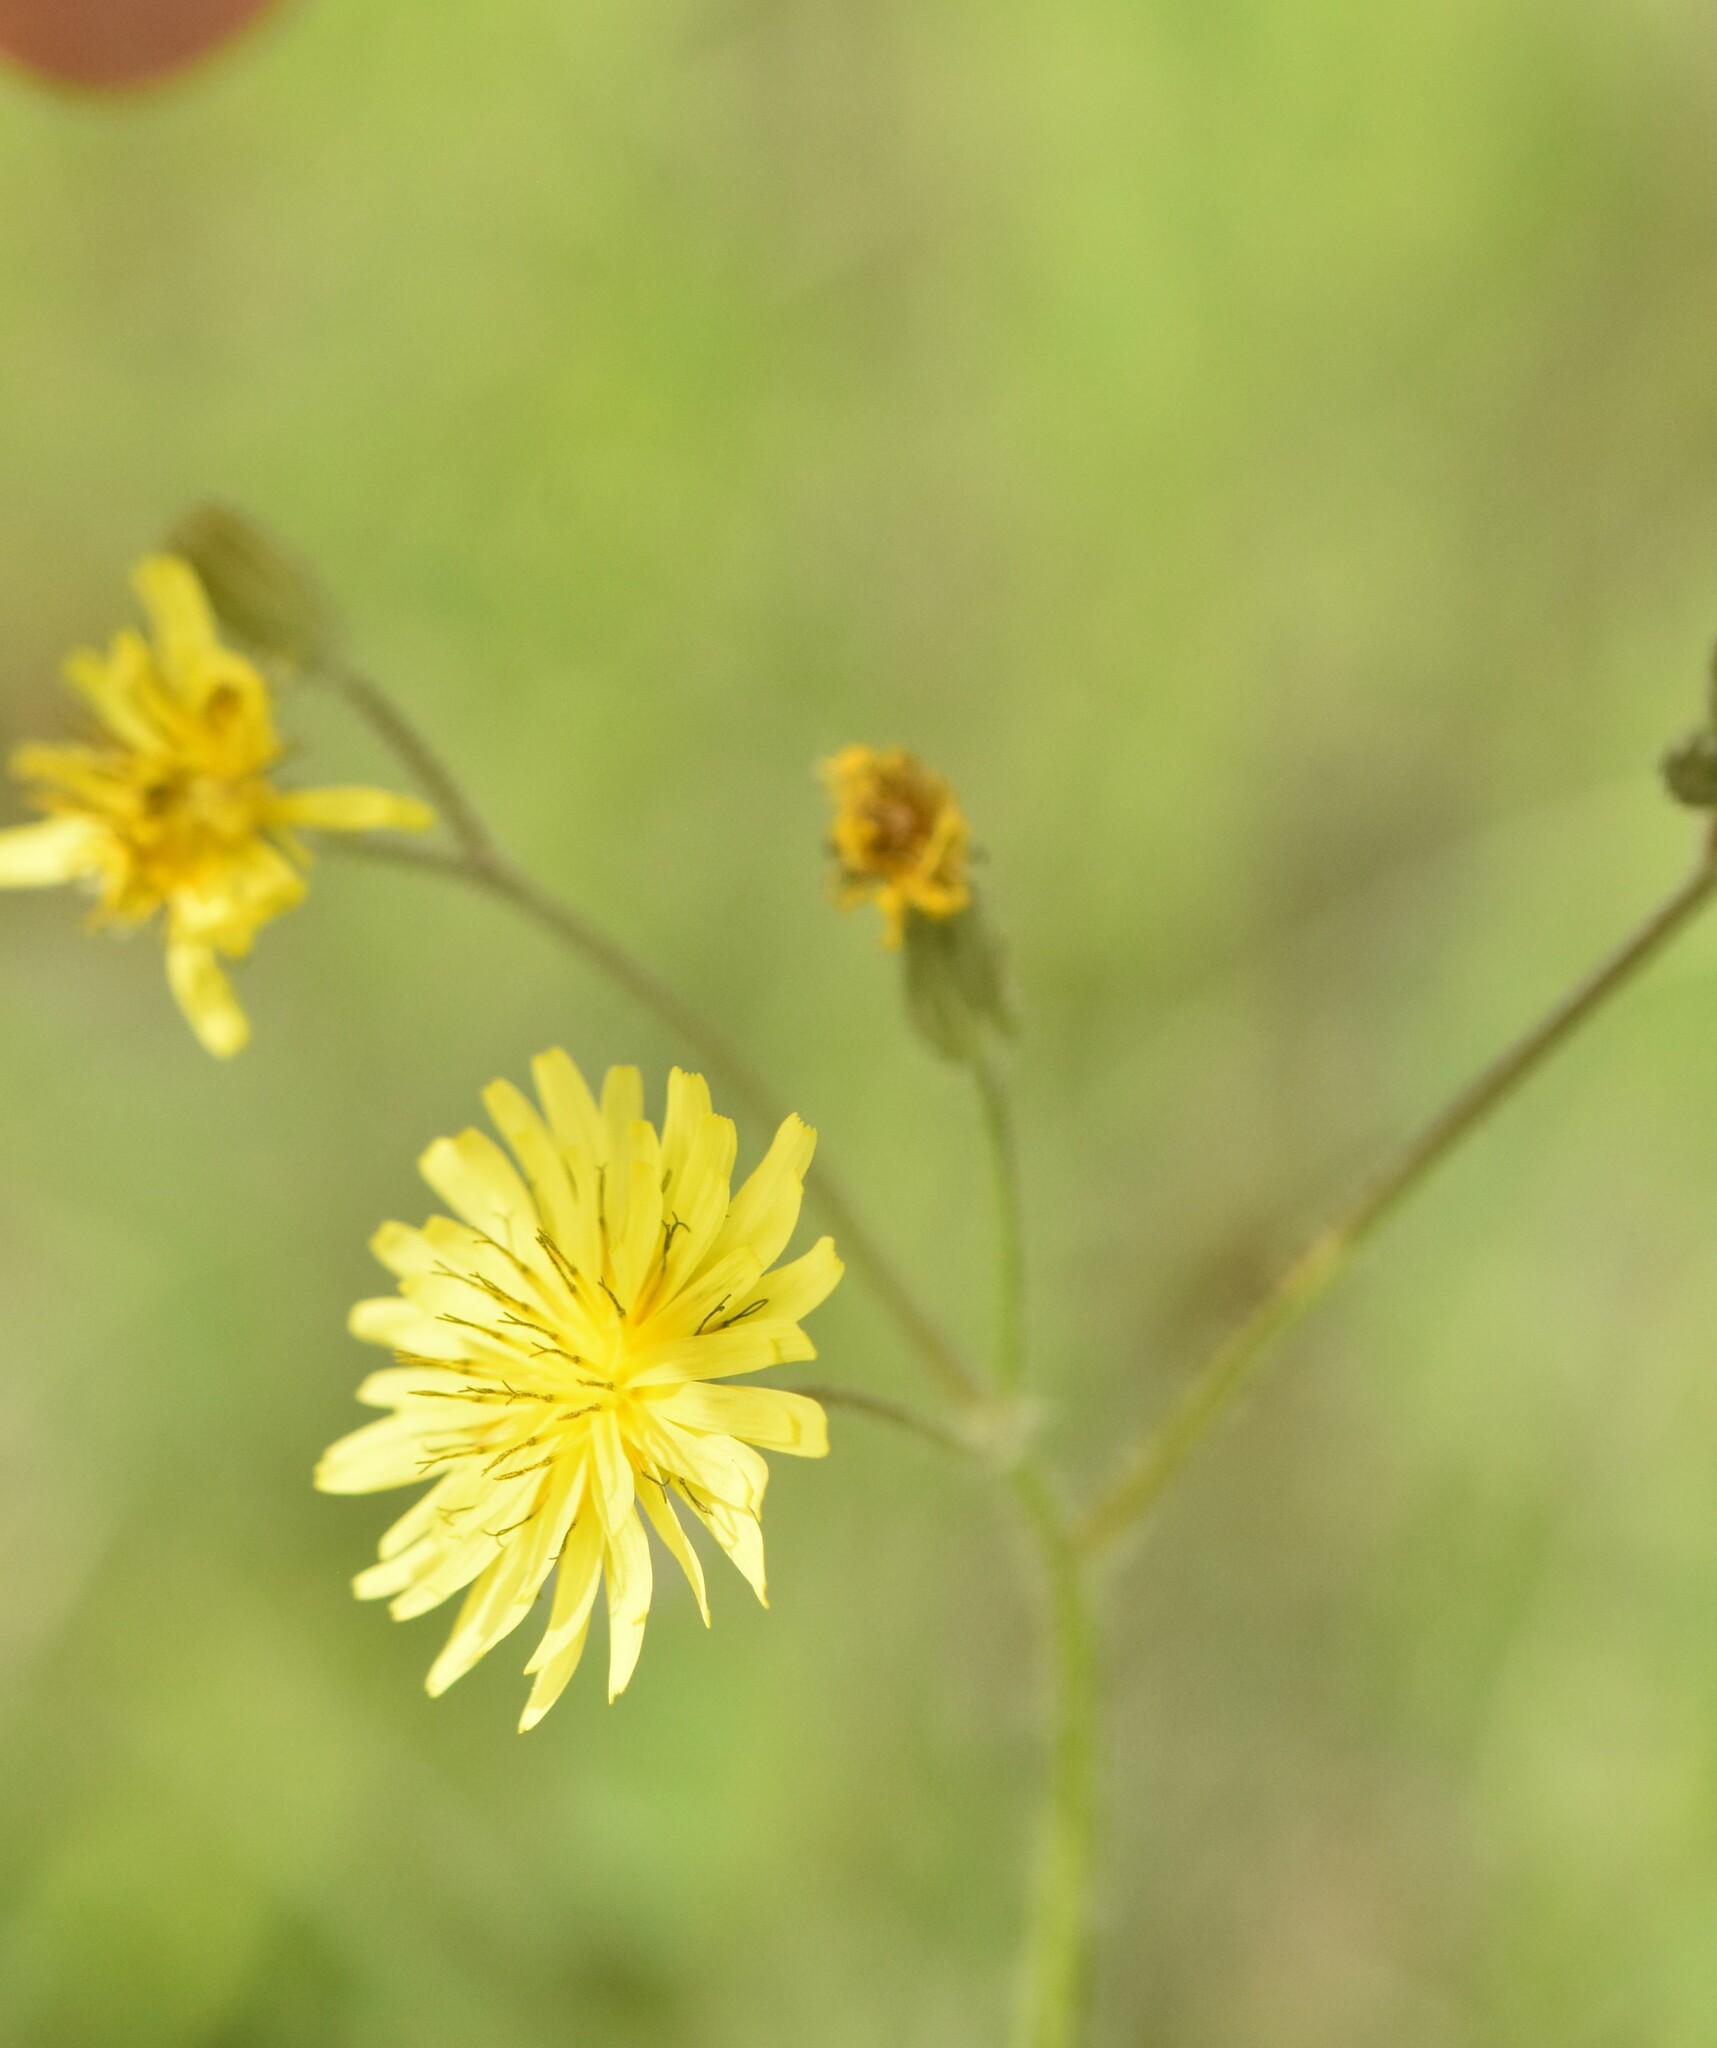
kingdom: Plantae
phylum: Tracheophyta
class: Magnoliopsida
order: Asterales
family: Asteraceae
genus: Crepis
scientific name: Crepis sancta
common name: Hawk's-beard
